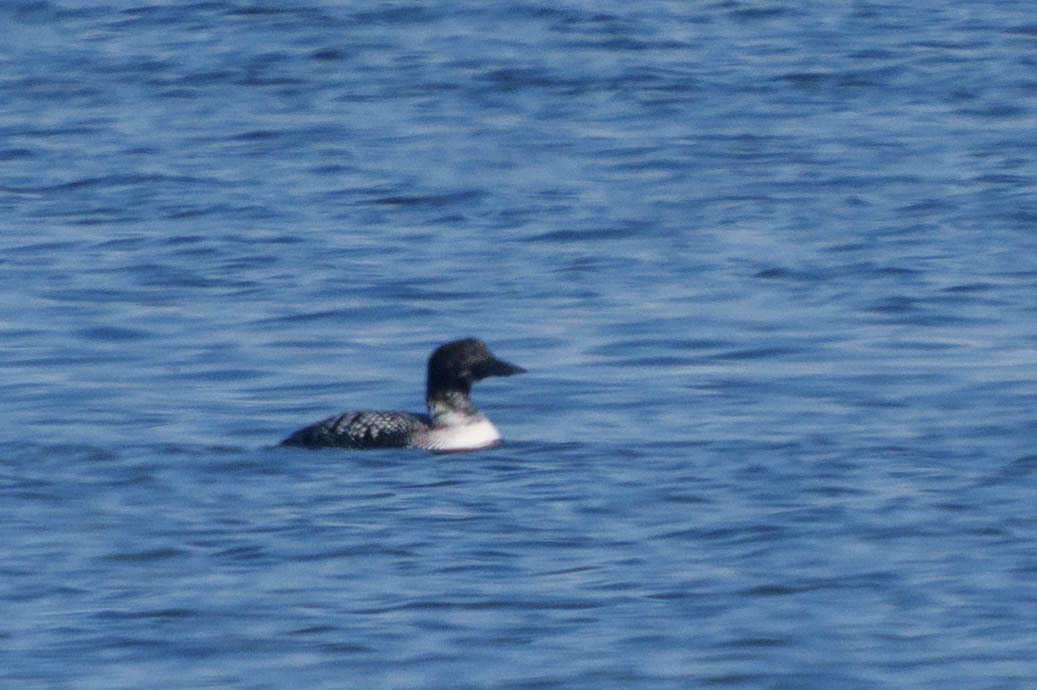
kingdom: Animalia
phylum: Chordata
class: Aves
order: Gaviiformes
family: Gaviidae
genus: Gavia
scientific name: Gavia immer
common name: Common loon
